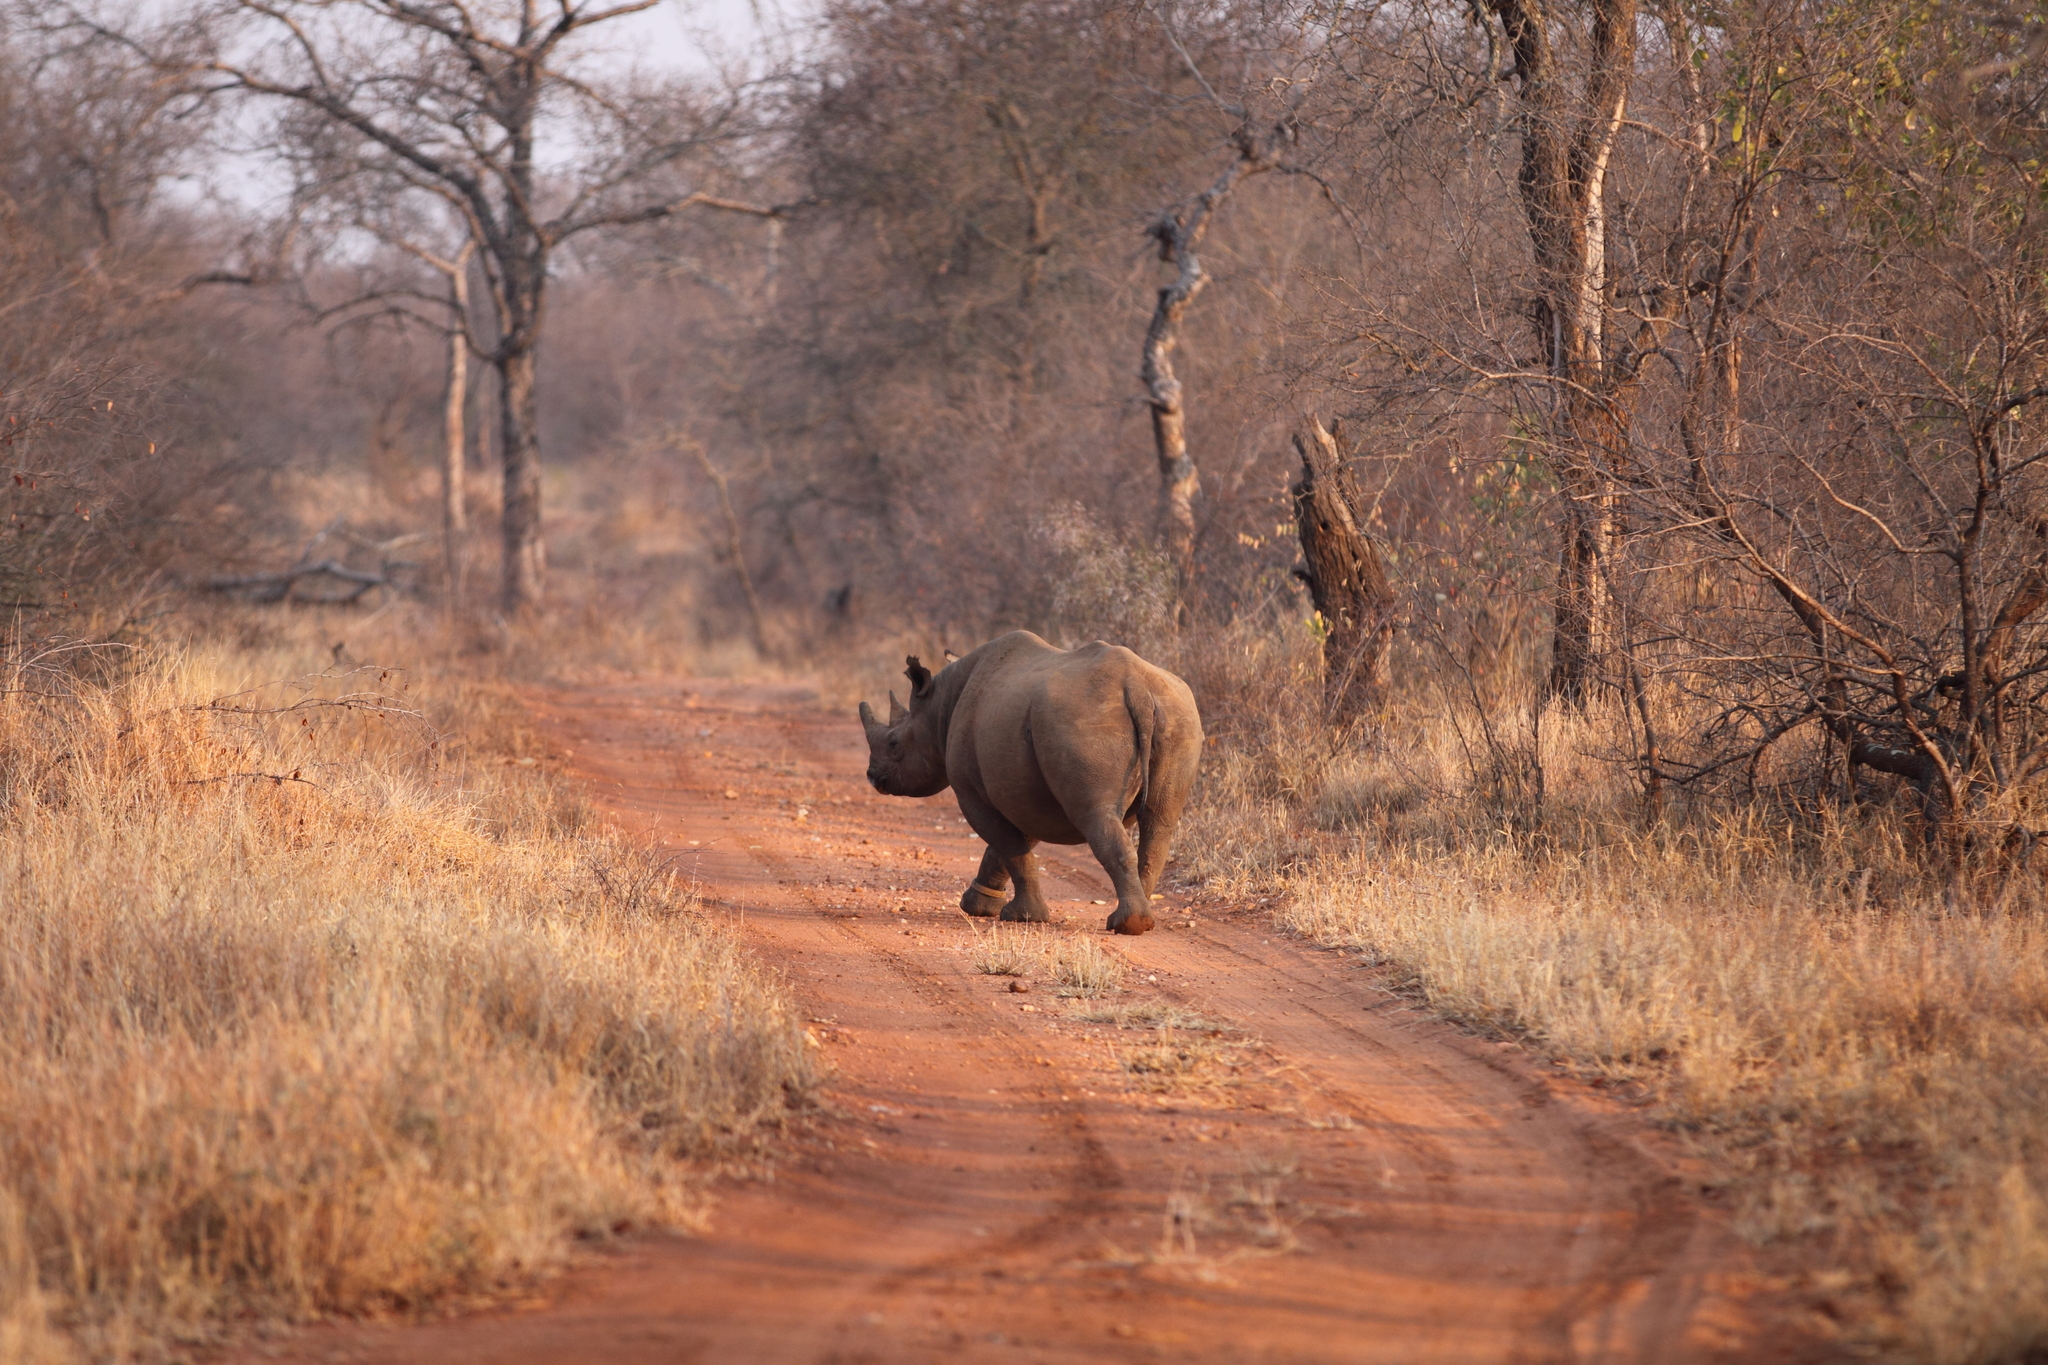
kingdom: Animalia
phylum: Chordata
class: Mammalia
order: Perissodactyla
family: Rhinocerotidae
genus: Diceros
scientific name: Diceros bicornis
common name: Black rhinoceros
